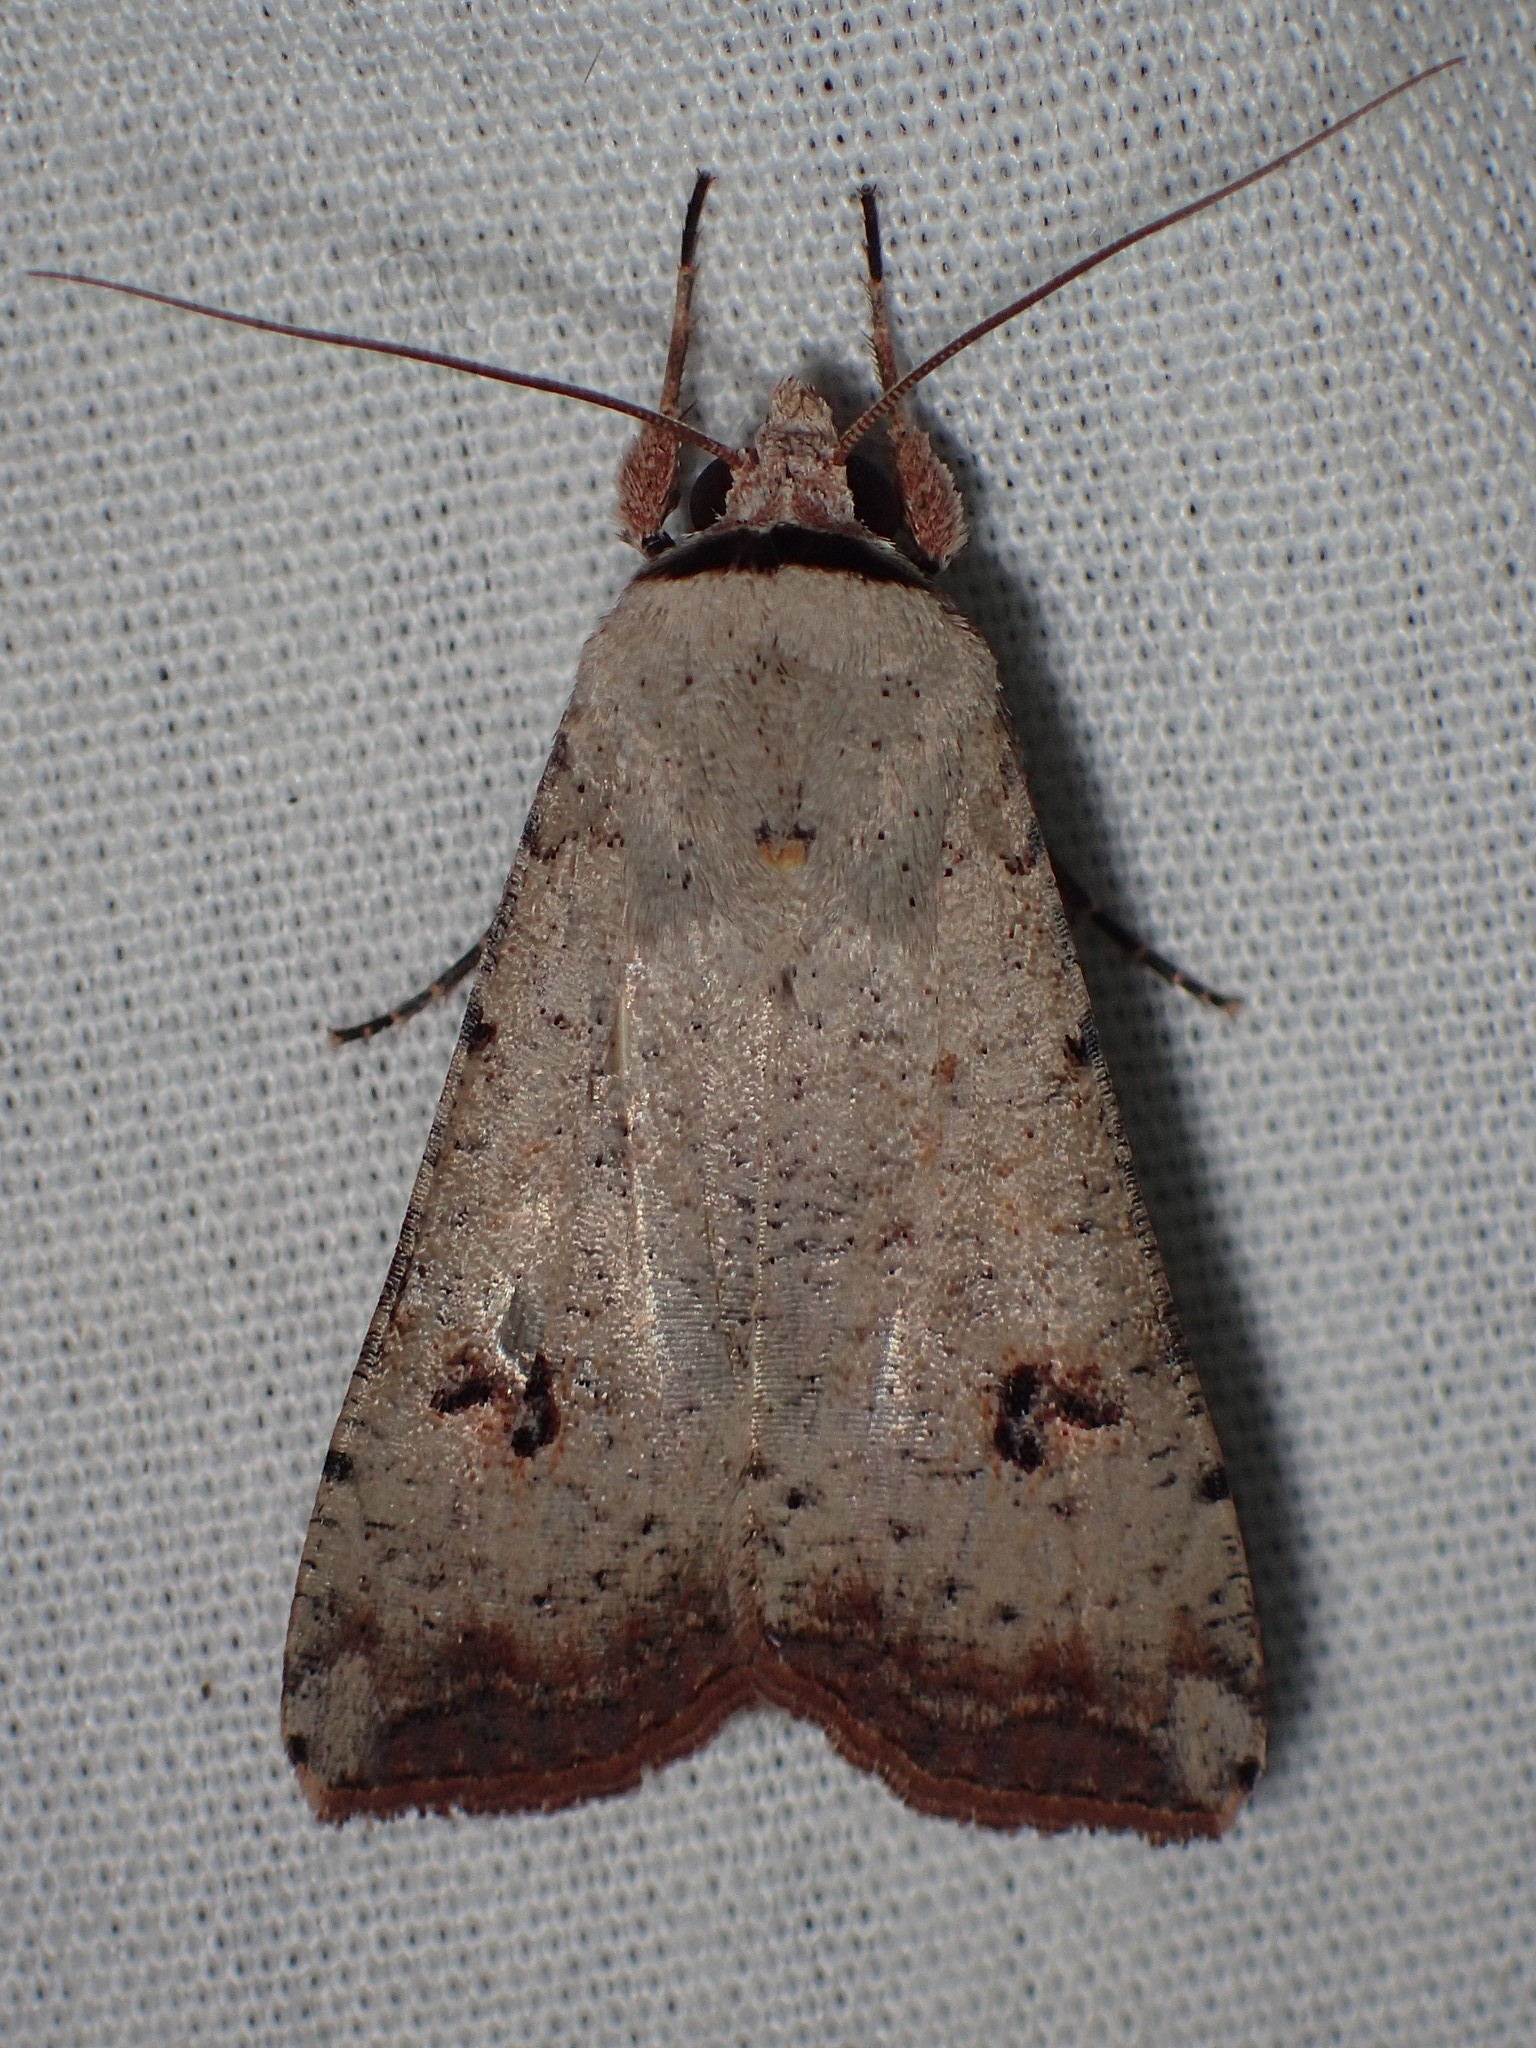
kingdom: Animalia
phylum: Arthropoda
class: Insecta
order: Lepidoptera
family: Noctuidae
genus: Anicla
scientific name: Anicla infecta
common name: Green cutworm
